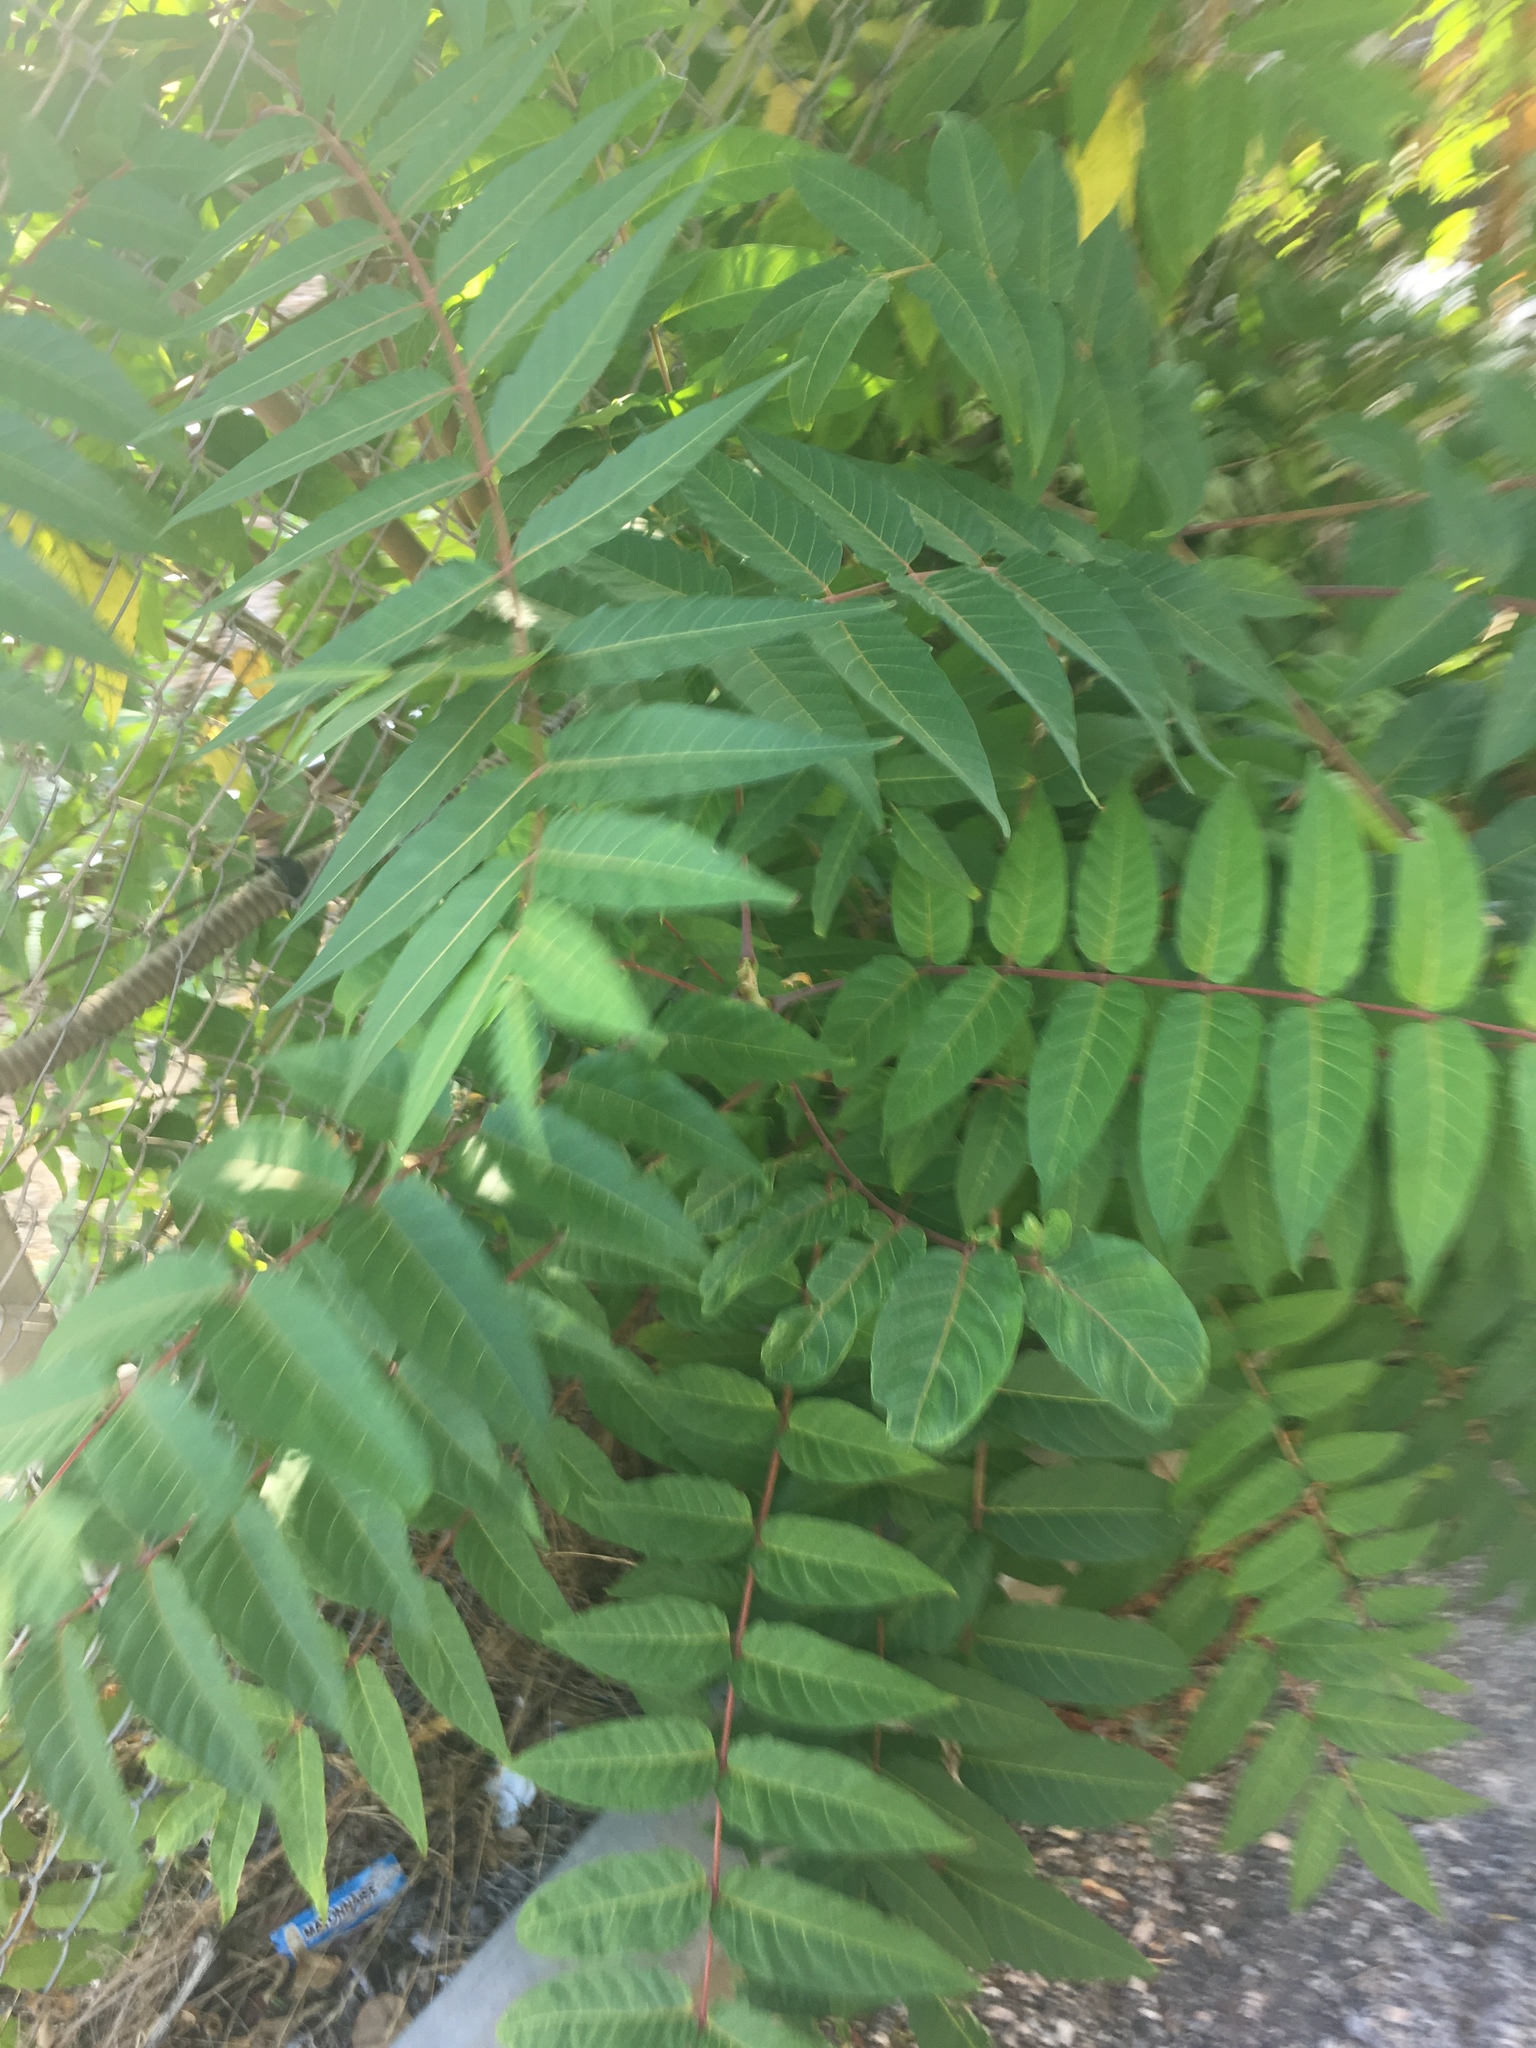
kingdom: Plantae
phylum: Tracheophyta
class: Magnoliopsida
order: Sapindales
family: Simaroubaceae
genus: Ailanthus
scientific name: Ailanthus altissima
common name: Tree-of-heaven
